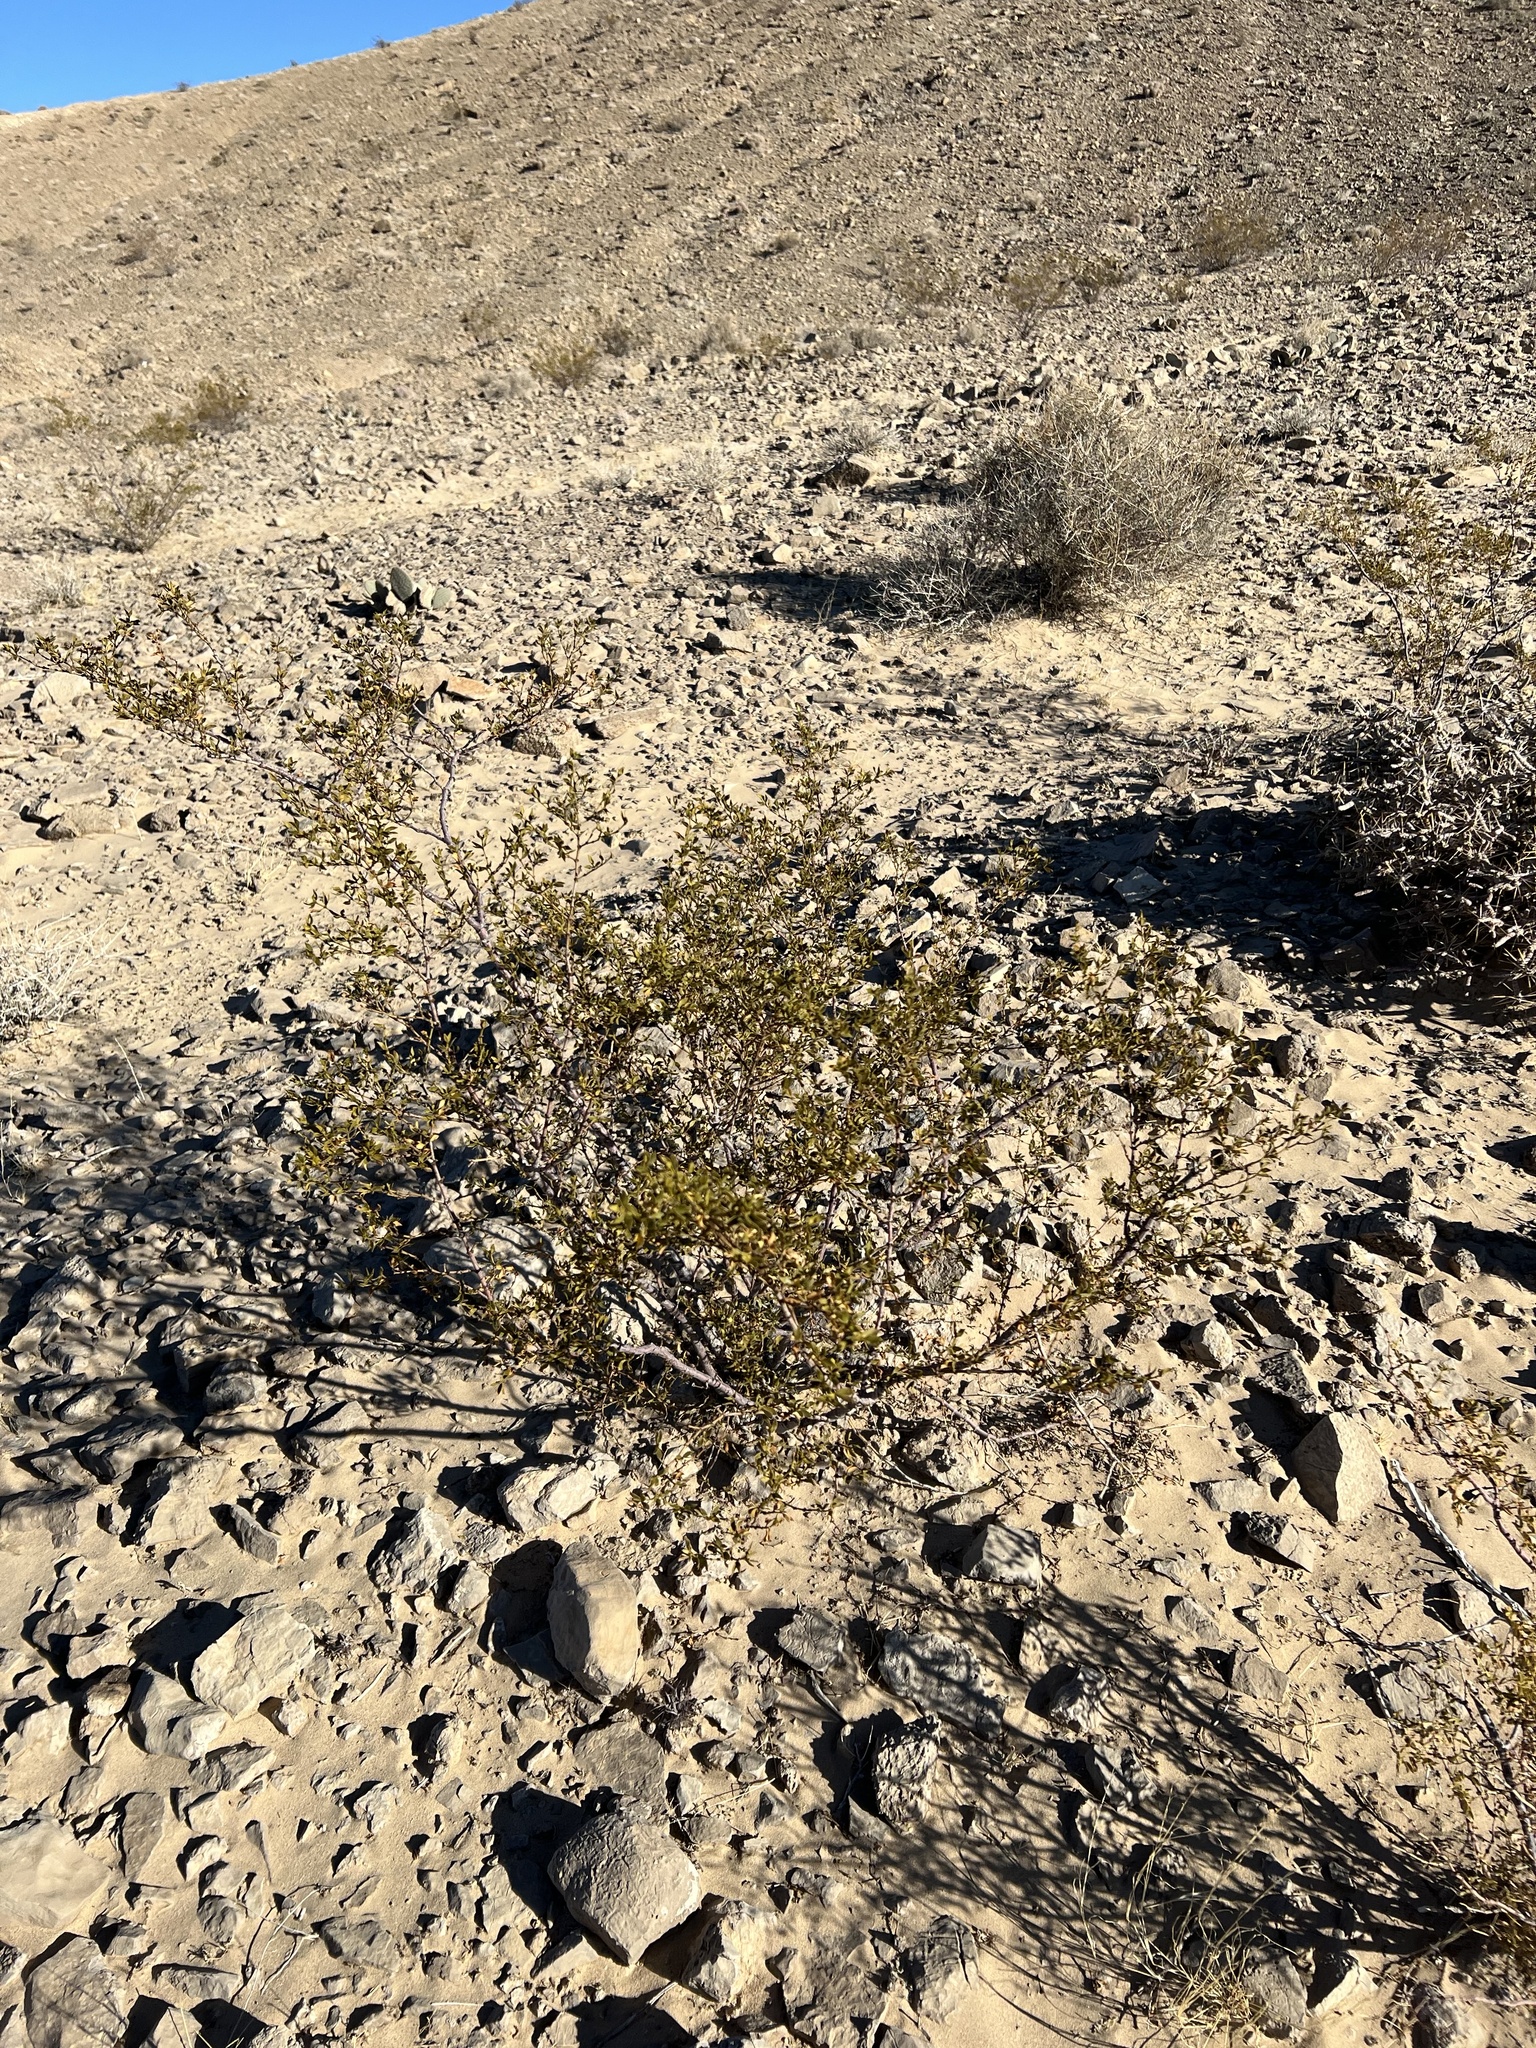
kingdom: Plantae
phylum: Tracheophyta
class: Magnoliopsida
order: Zygophyllales
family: Zygophyllaceae
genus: Larrea
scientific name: Larrea tridentata
